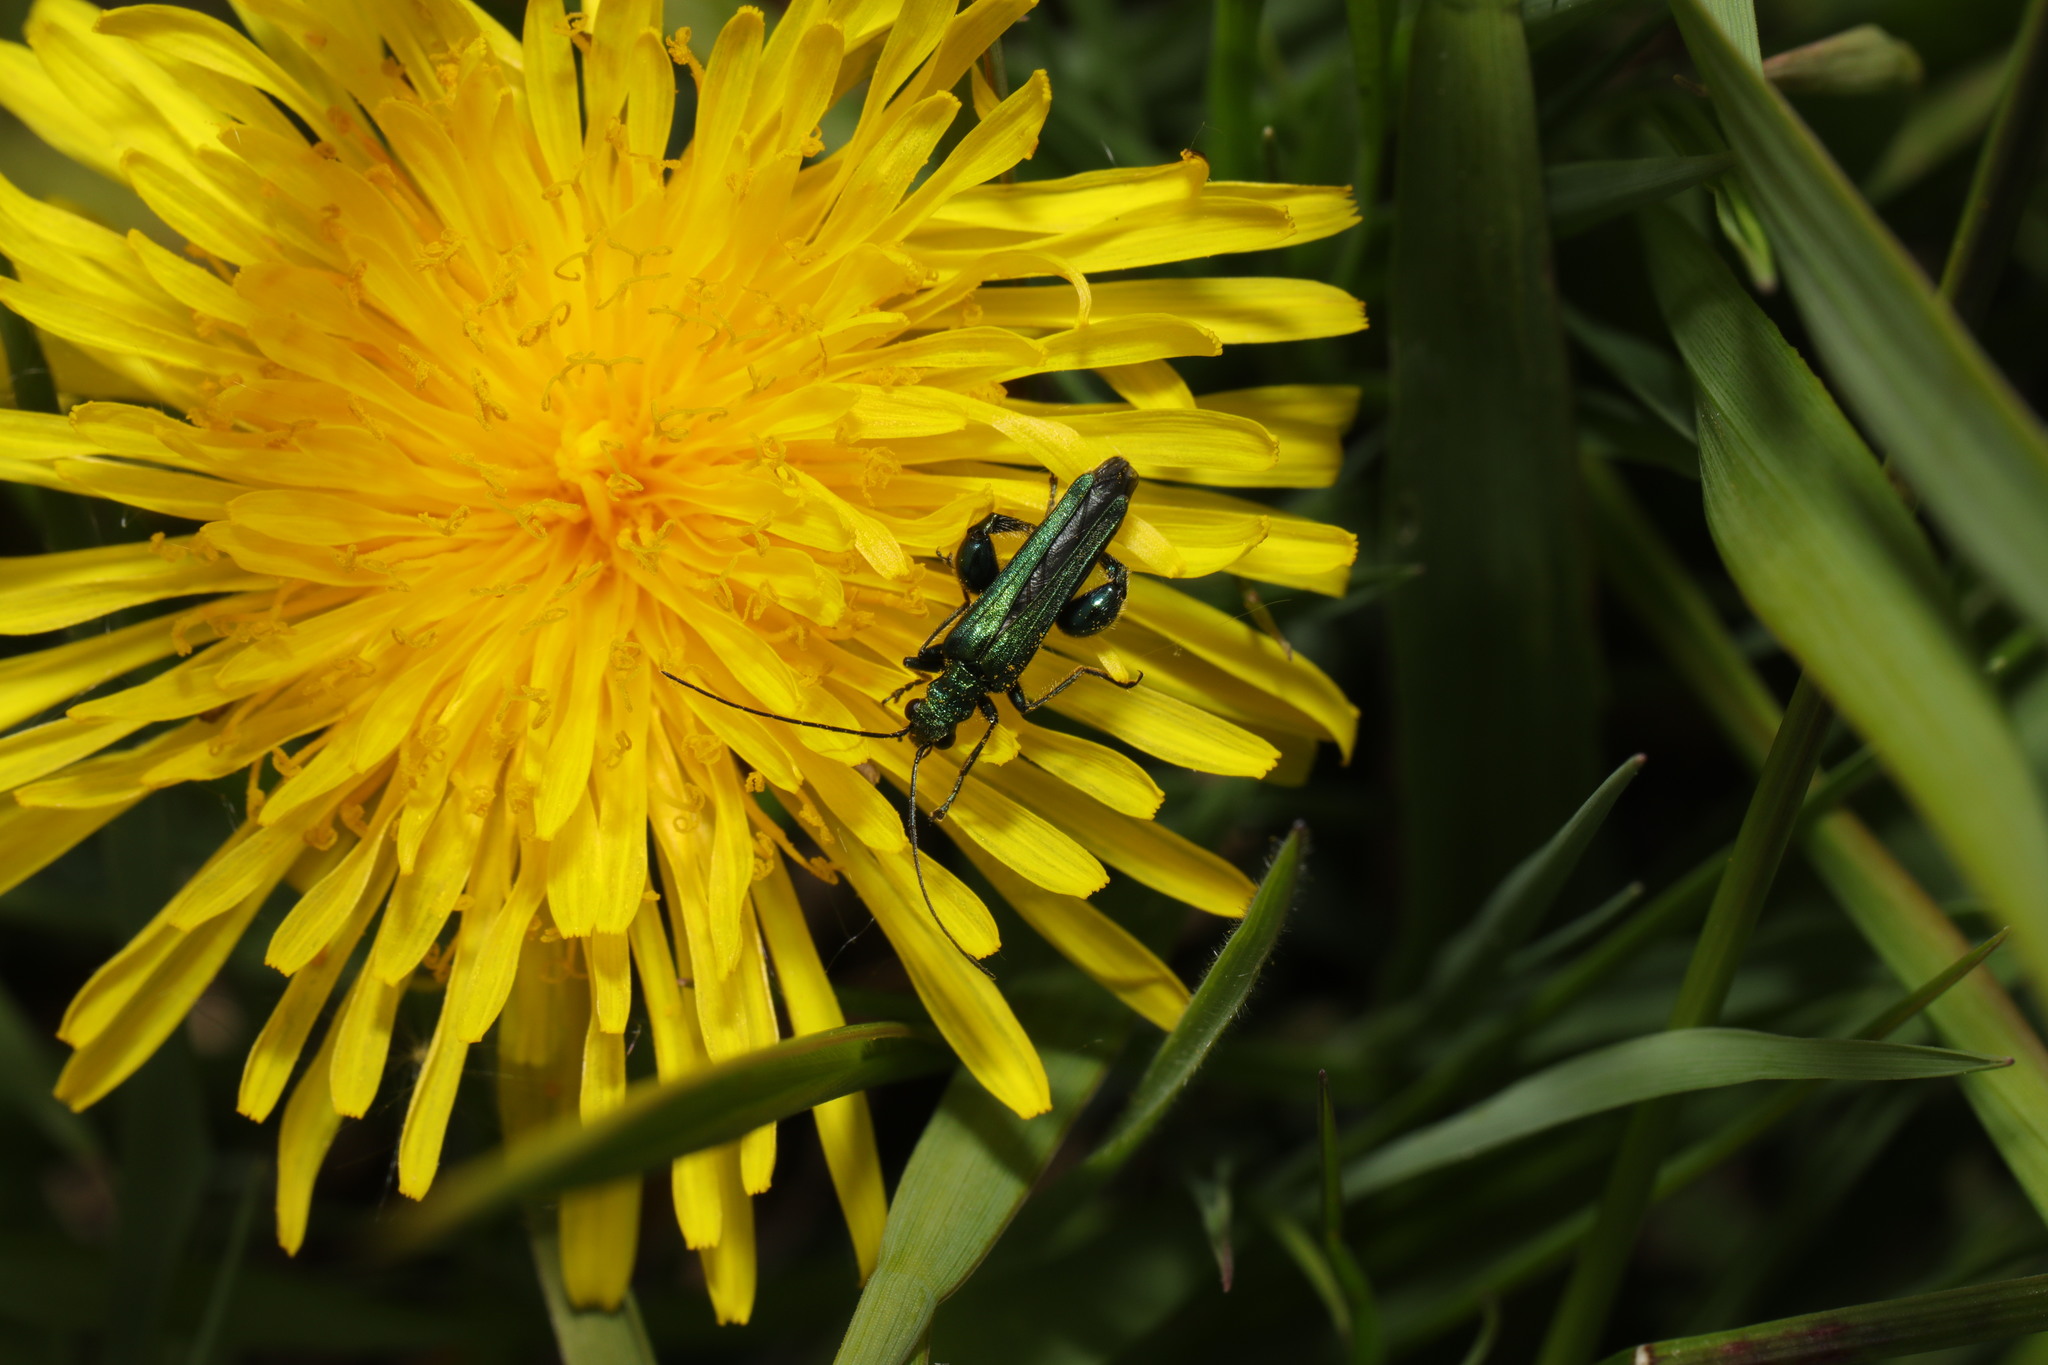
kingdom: Animalia
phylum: Arthropoda
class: Insecta
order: Coleoptera
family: Oedemeridae
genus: Oedemera
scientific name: Oedemera nobilis
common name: Swollen-thighed beetle
